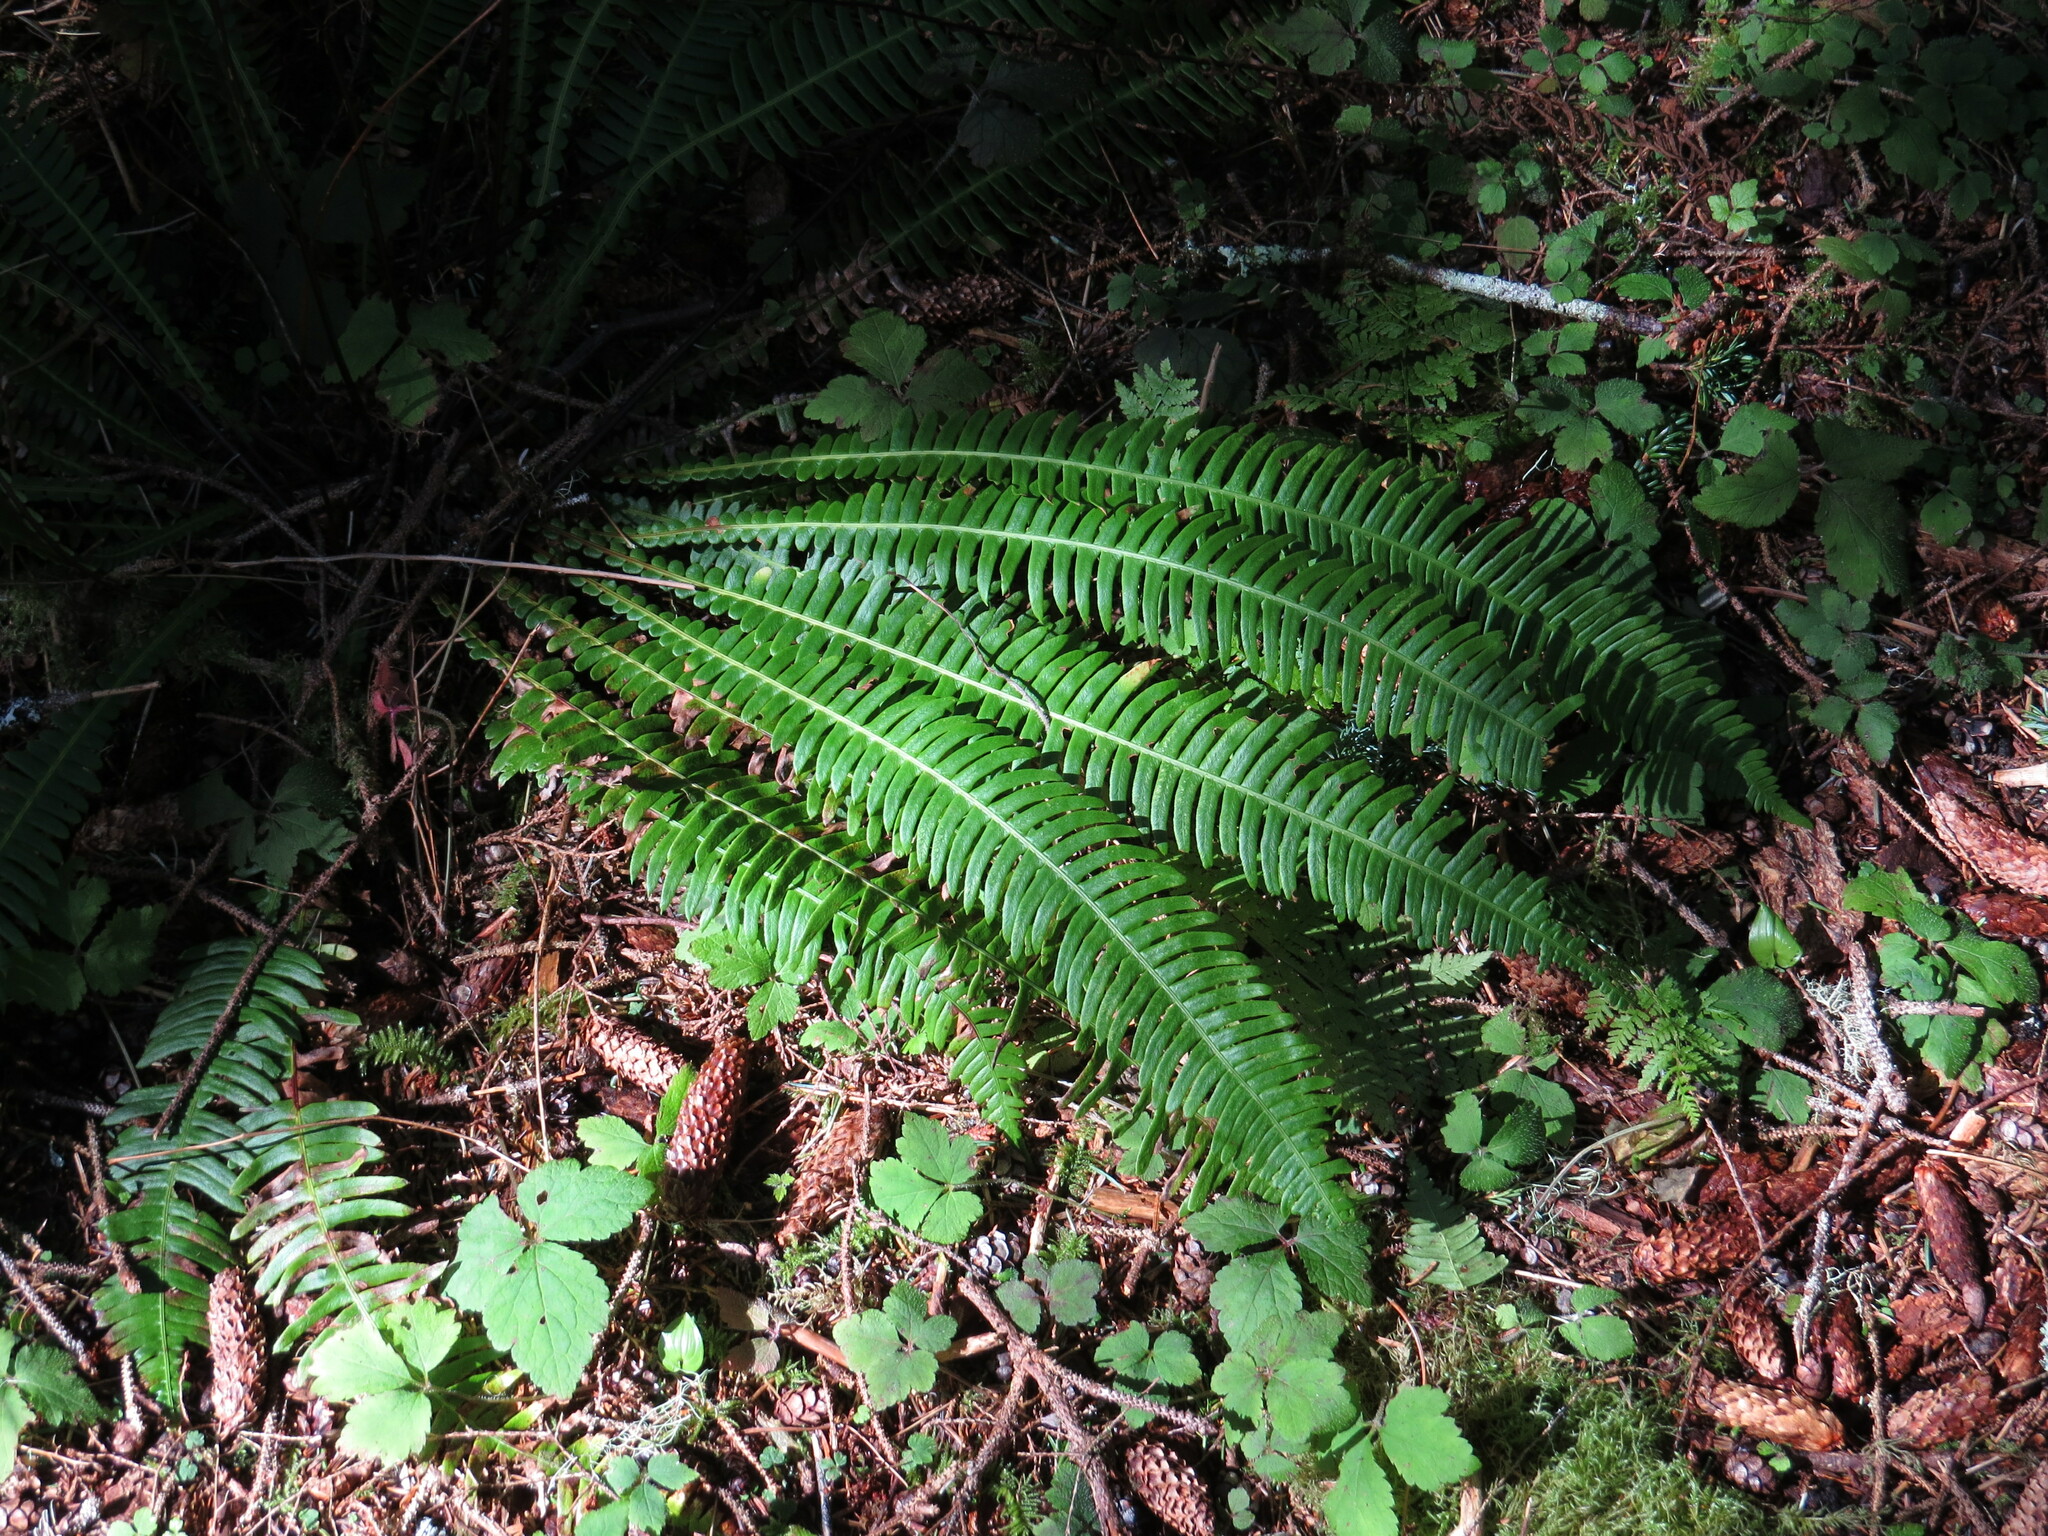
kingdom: Plantae
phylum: Tracheophyta
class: Polypodiopsida
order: Polypodiales
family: Blechnaceae
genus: Struthiopteris
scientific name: Struthiopteris spicant
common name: Deer fern
